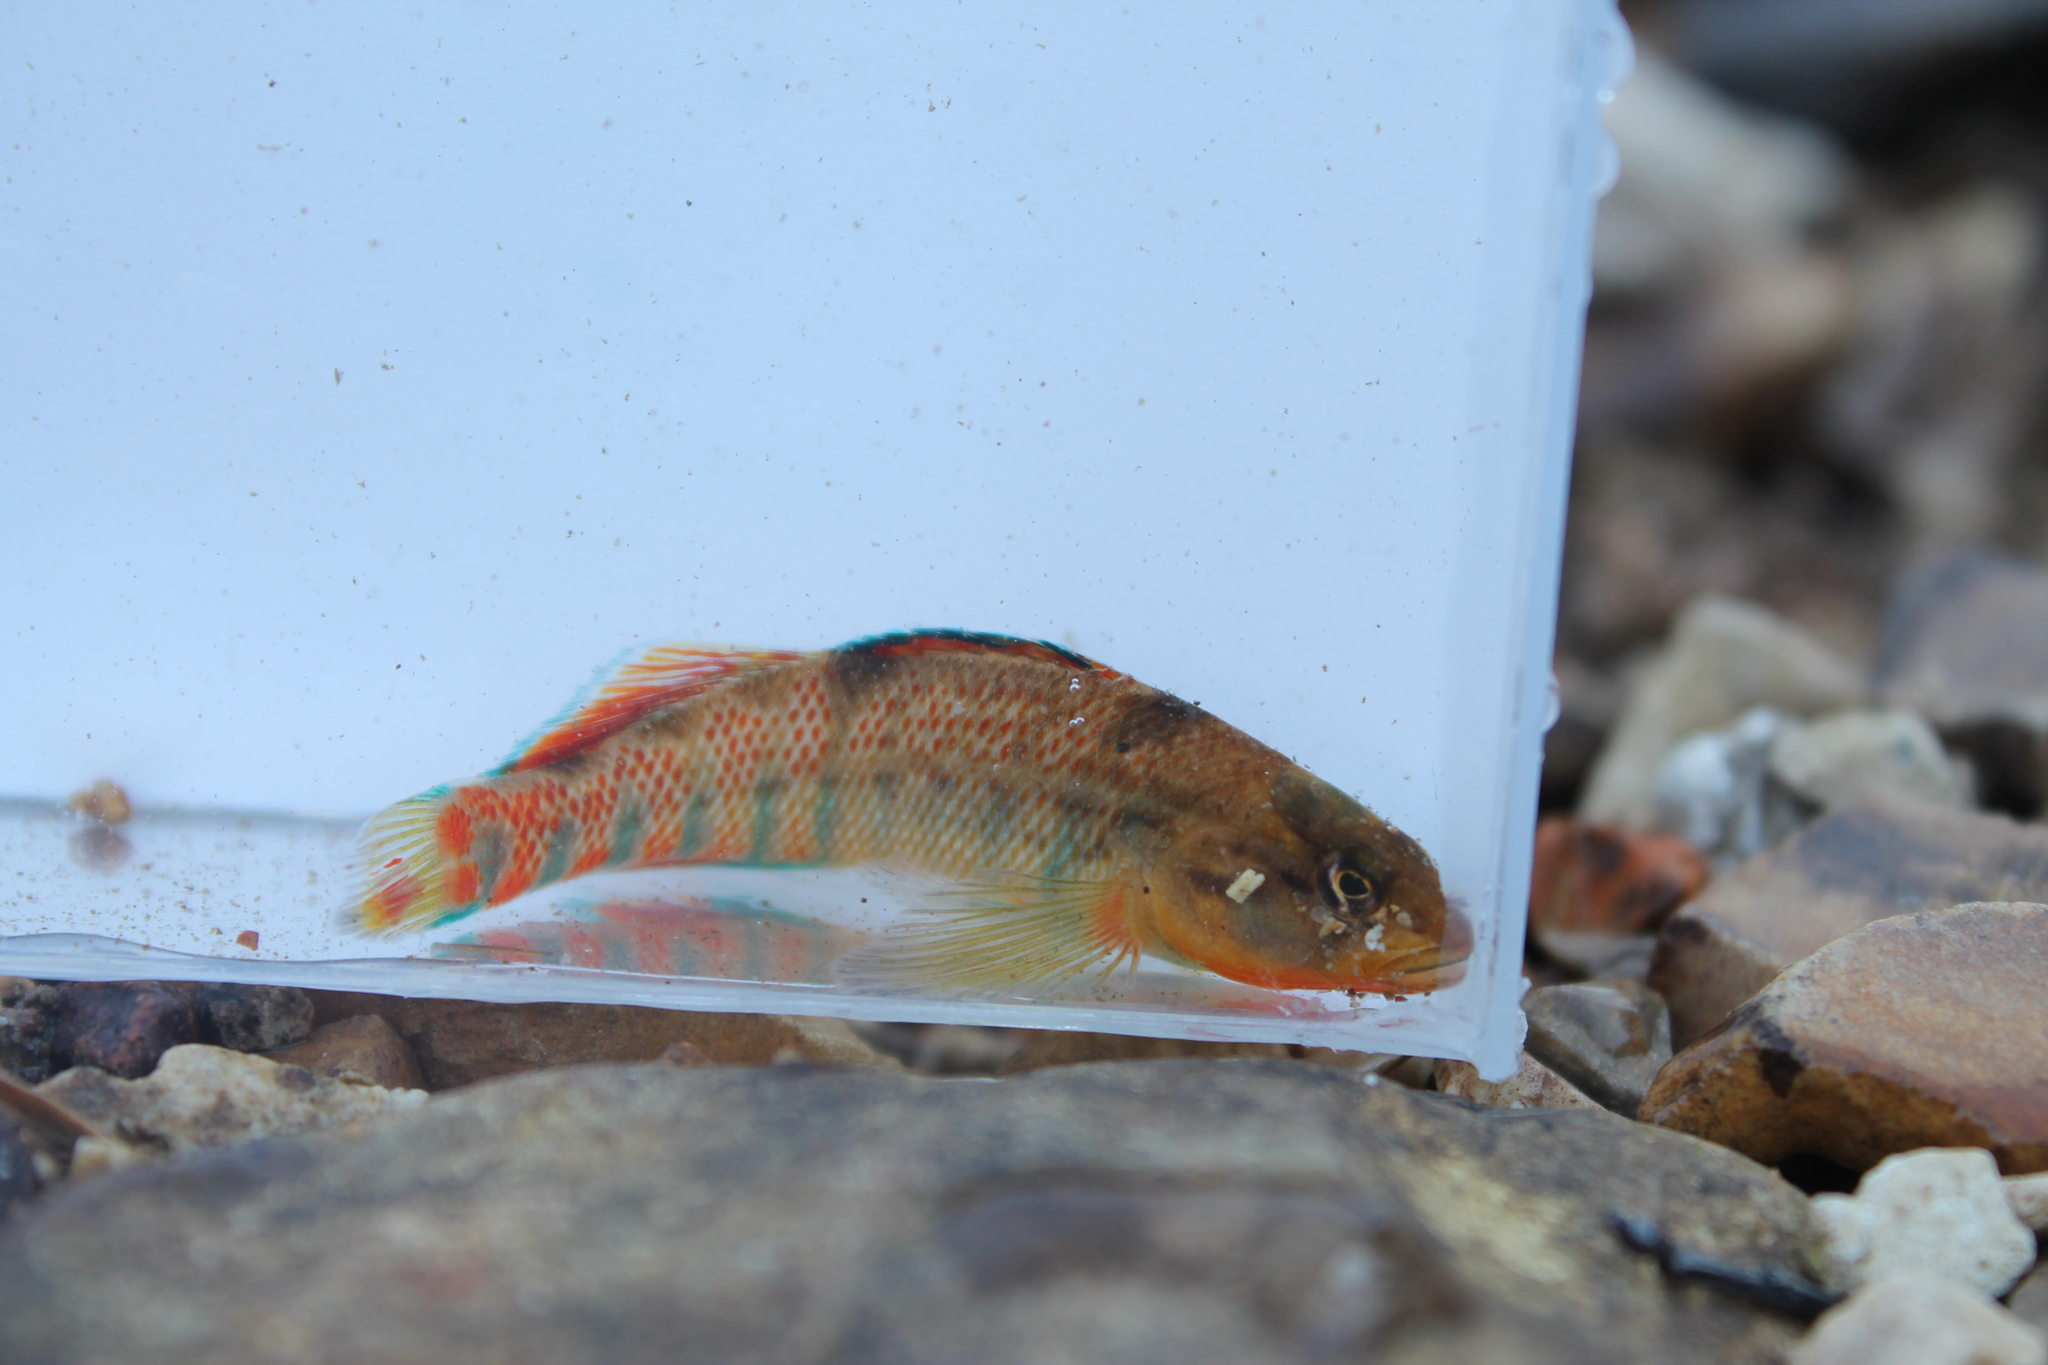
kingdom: Animalia
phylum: Chordata
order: Perciformes
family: Percidae
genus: Etheostoma
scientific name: Etheostoma caeruleum
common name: Rainbow darter
